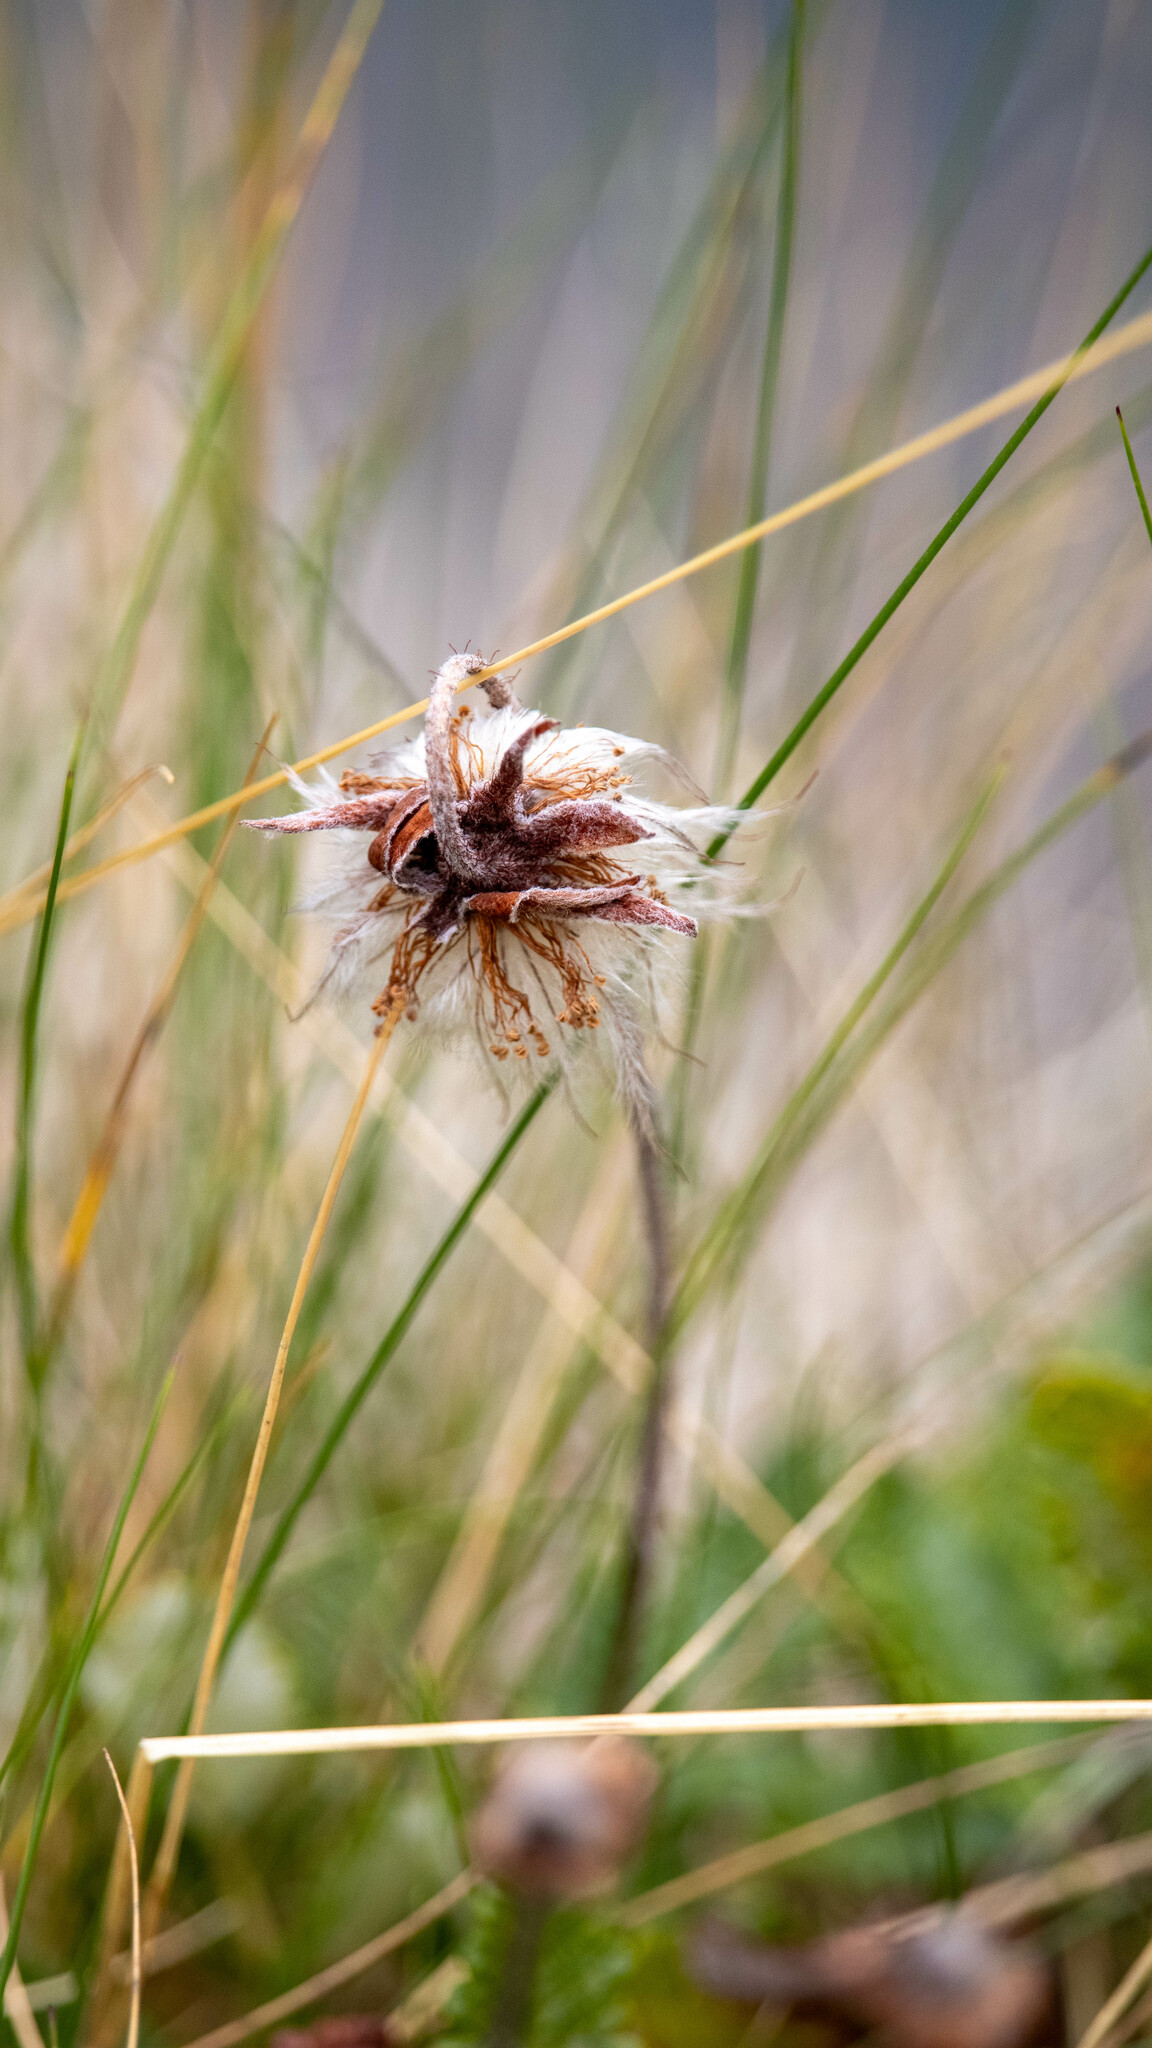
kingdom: Plantae
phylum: Tracheophyta
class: Magnoliopsida
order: Rosales
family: Rosaceae
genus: Dryas
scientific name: Dryas octopetala
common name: Eight-petal mountain-avens
